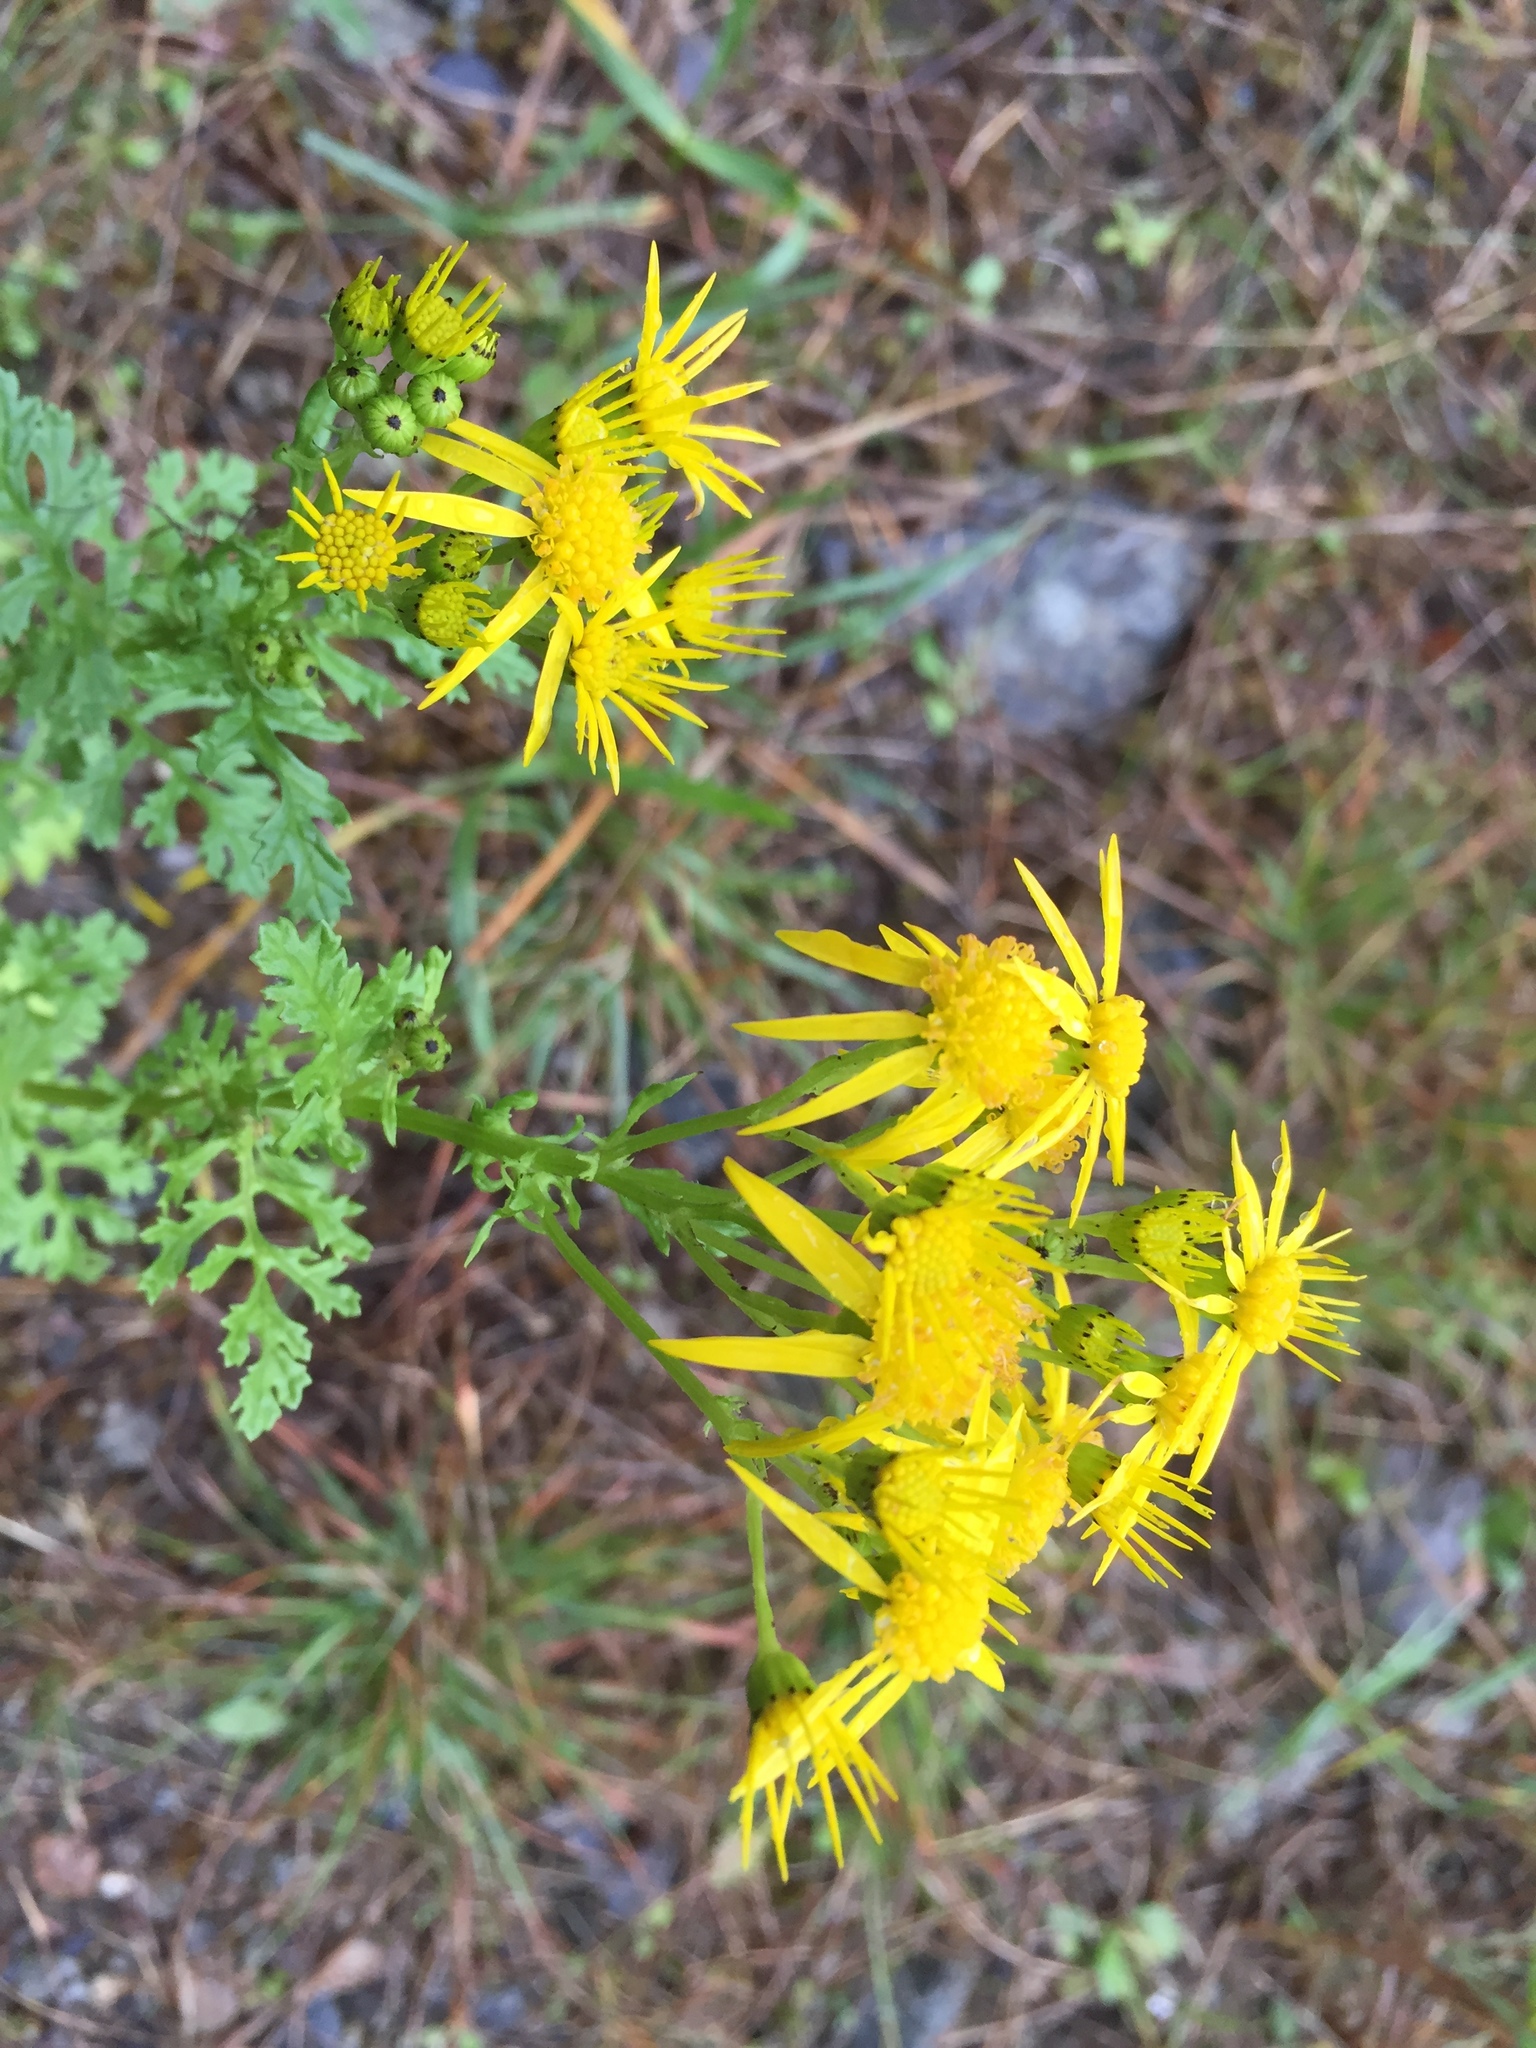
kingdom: Plantae
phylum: Tracheophyta
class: Magnoliopsida
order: Asterales
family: Asteraceae
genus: Jacobaea
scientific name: Jacobaea vulgaris
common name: Stinking willie
